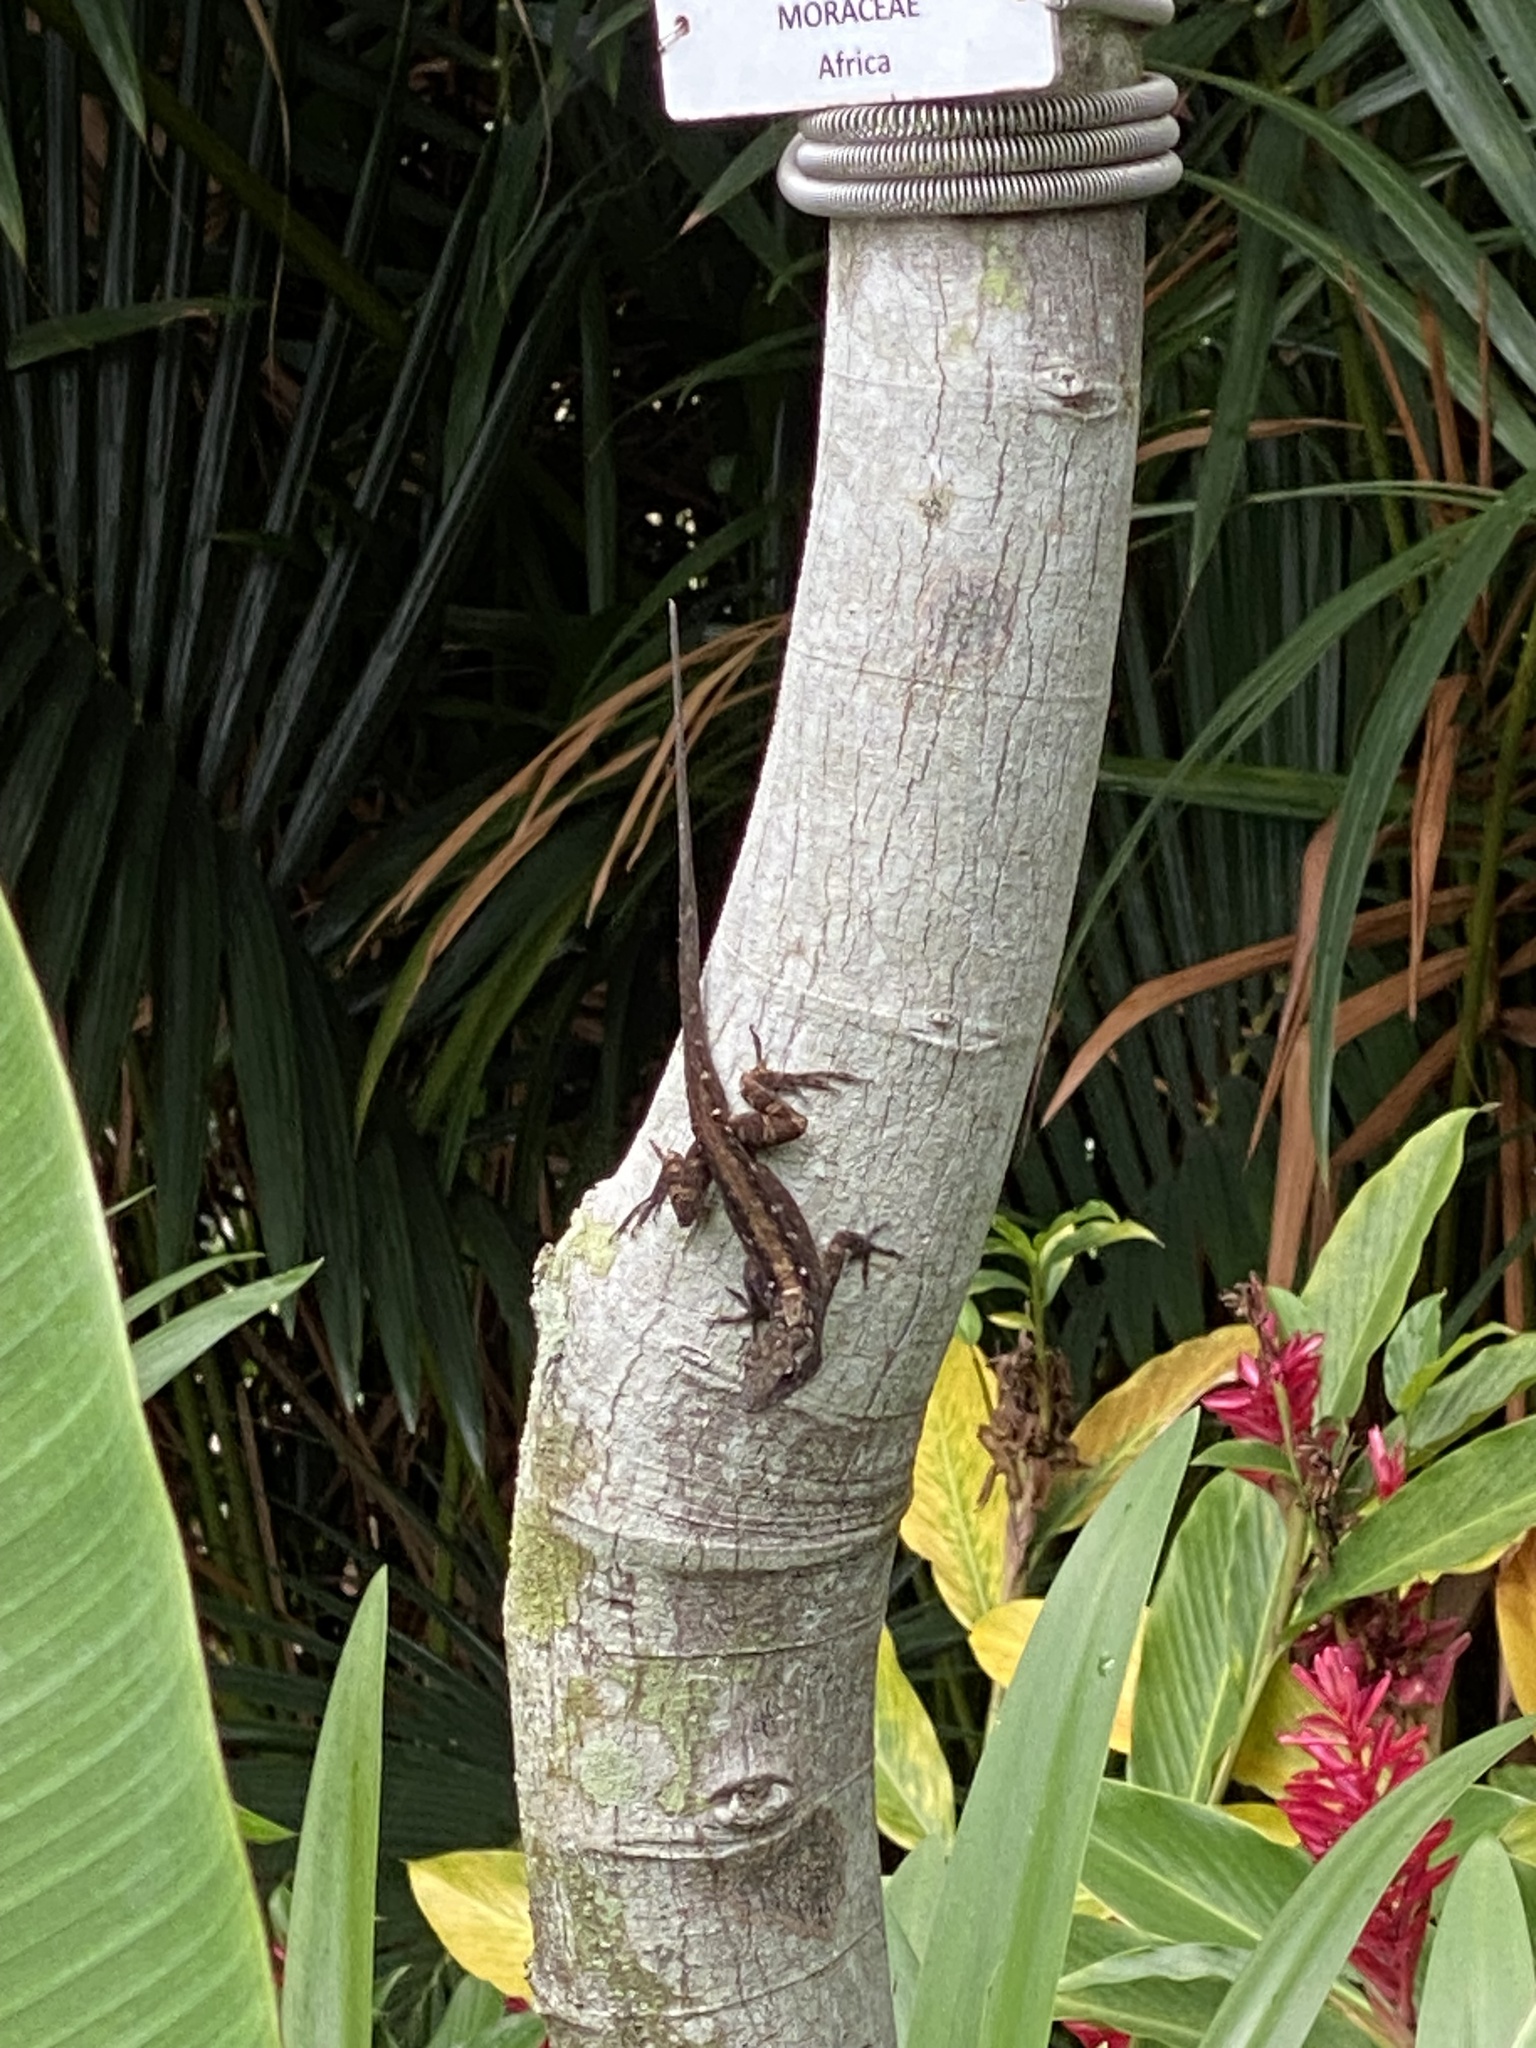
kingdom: Animalia
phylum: Chordata
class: Squamata
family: Dactyloidae
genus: Anolis
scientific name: Anolis sagrei
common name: Brown anole
